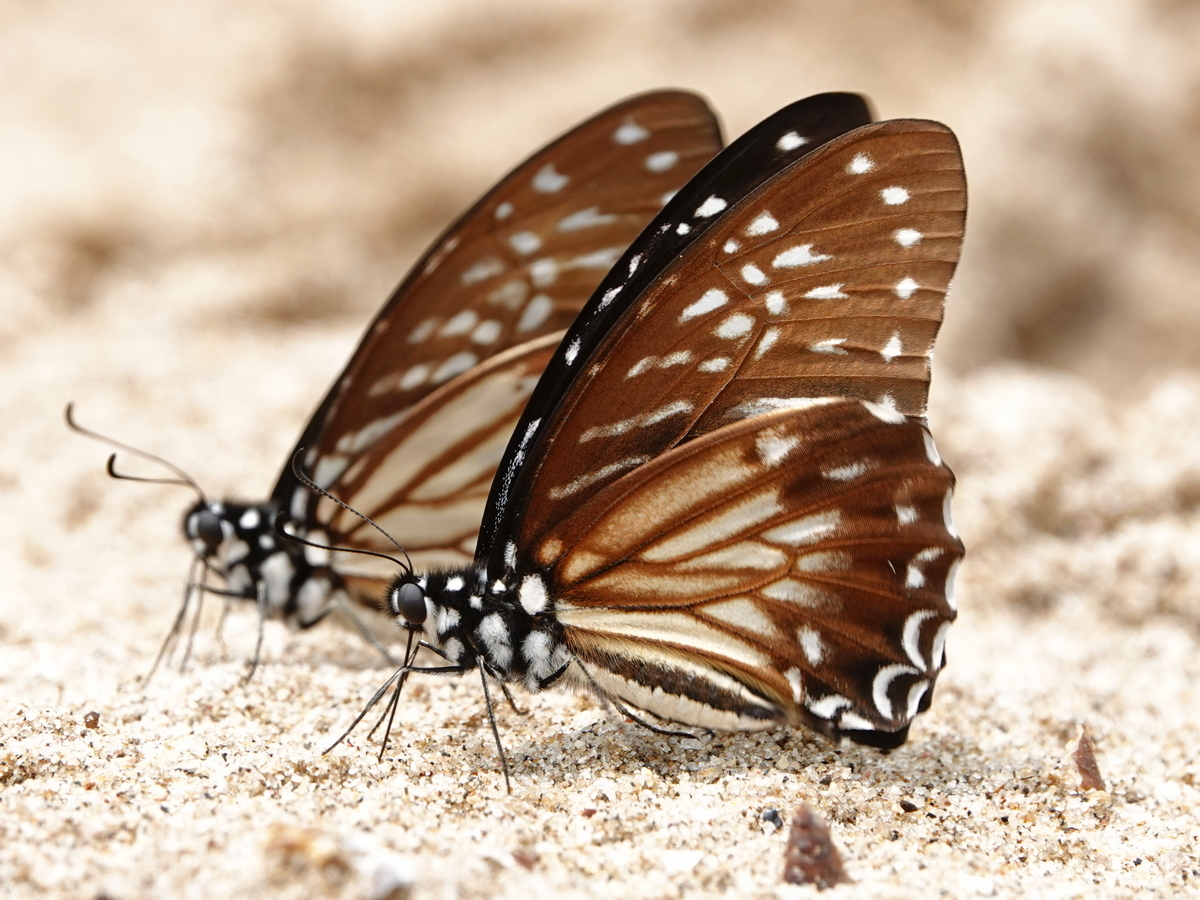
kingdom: Animalia
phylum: Arthropoda
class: Insecta
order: Lepidoptera
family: Papilionidae
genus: Graphium
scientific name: Graphium macareus
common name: Lesser zebra
